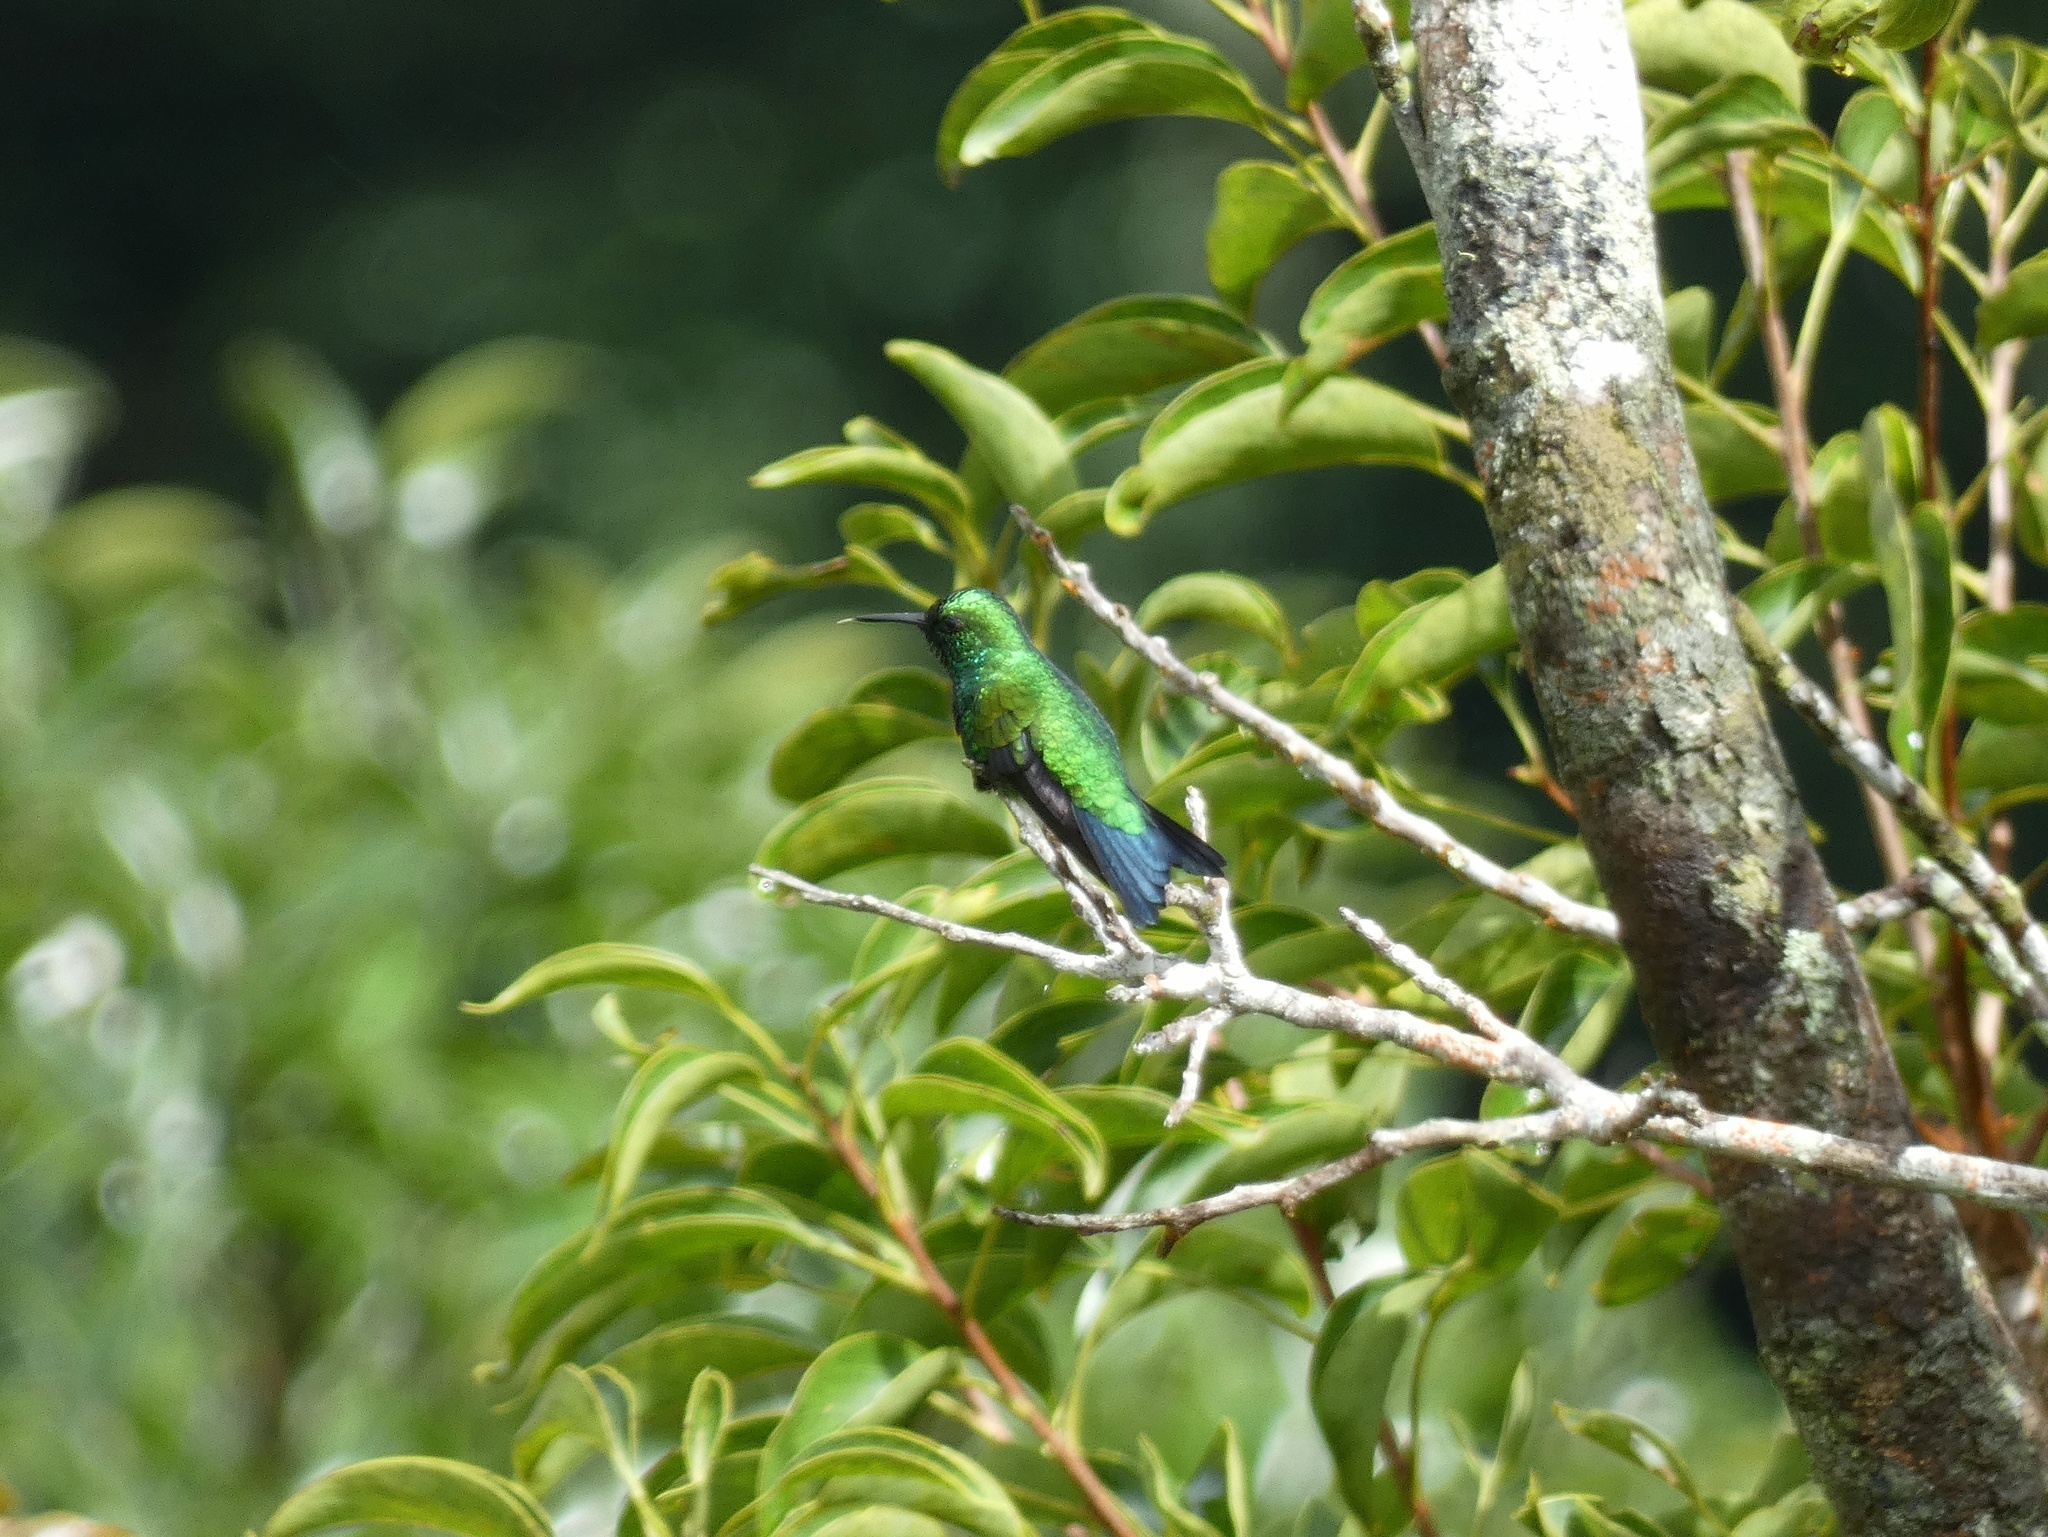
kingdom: Animalia
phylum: Chordata
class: Aves
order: Apodiformes
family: Trochilidae
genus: Chlorostilbon
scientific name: Chlorostilbon assimilis
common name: Garden emerald
